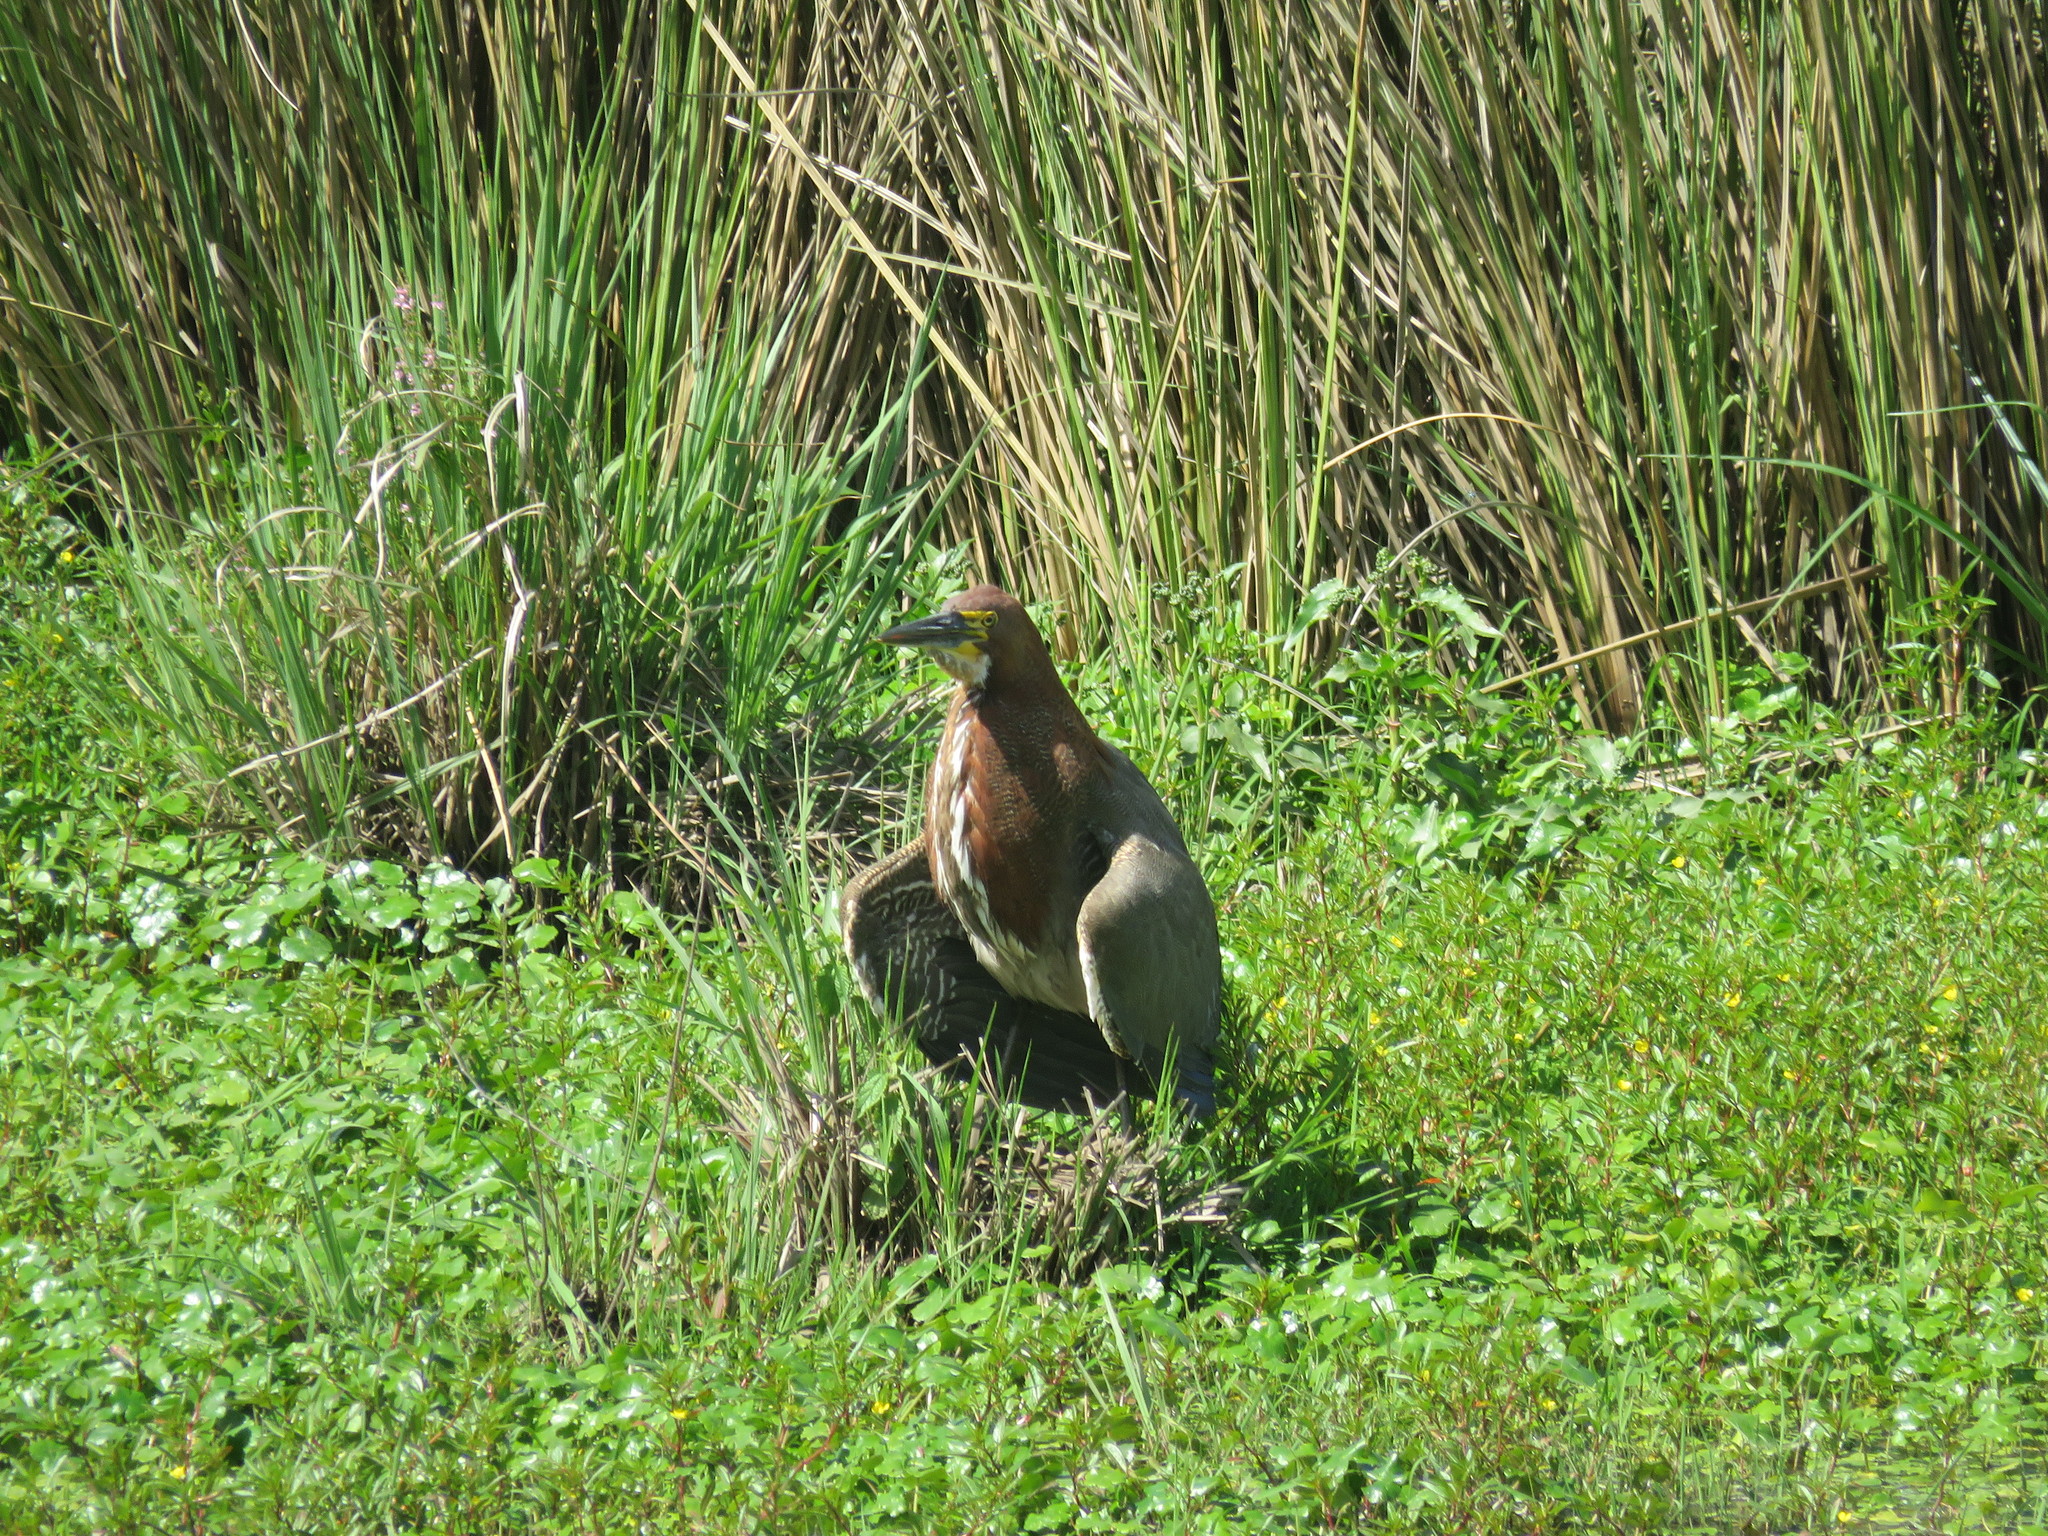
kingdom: Animalia
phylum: Chordata
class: Aves
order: Pelecaniformes
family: Ardeidae
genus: Tigrisoma
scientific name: Tigrisoma lineatum
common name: Rufescent tiger-heron
